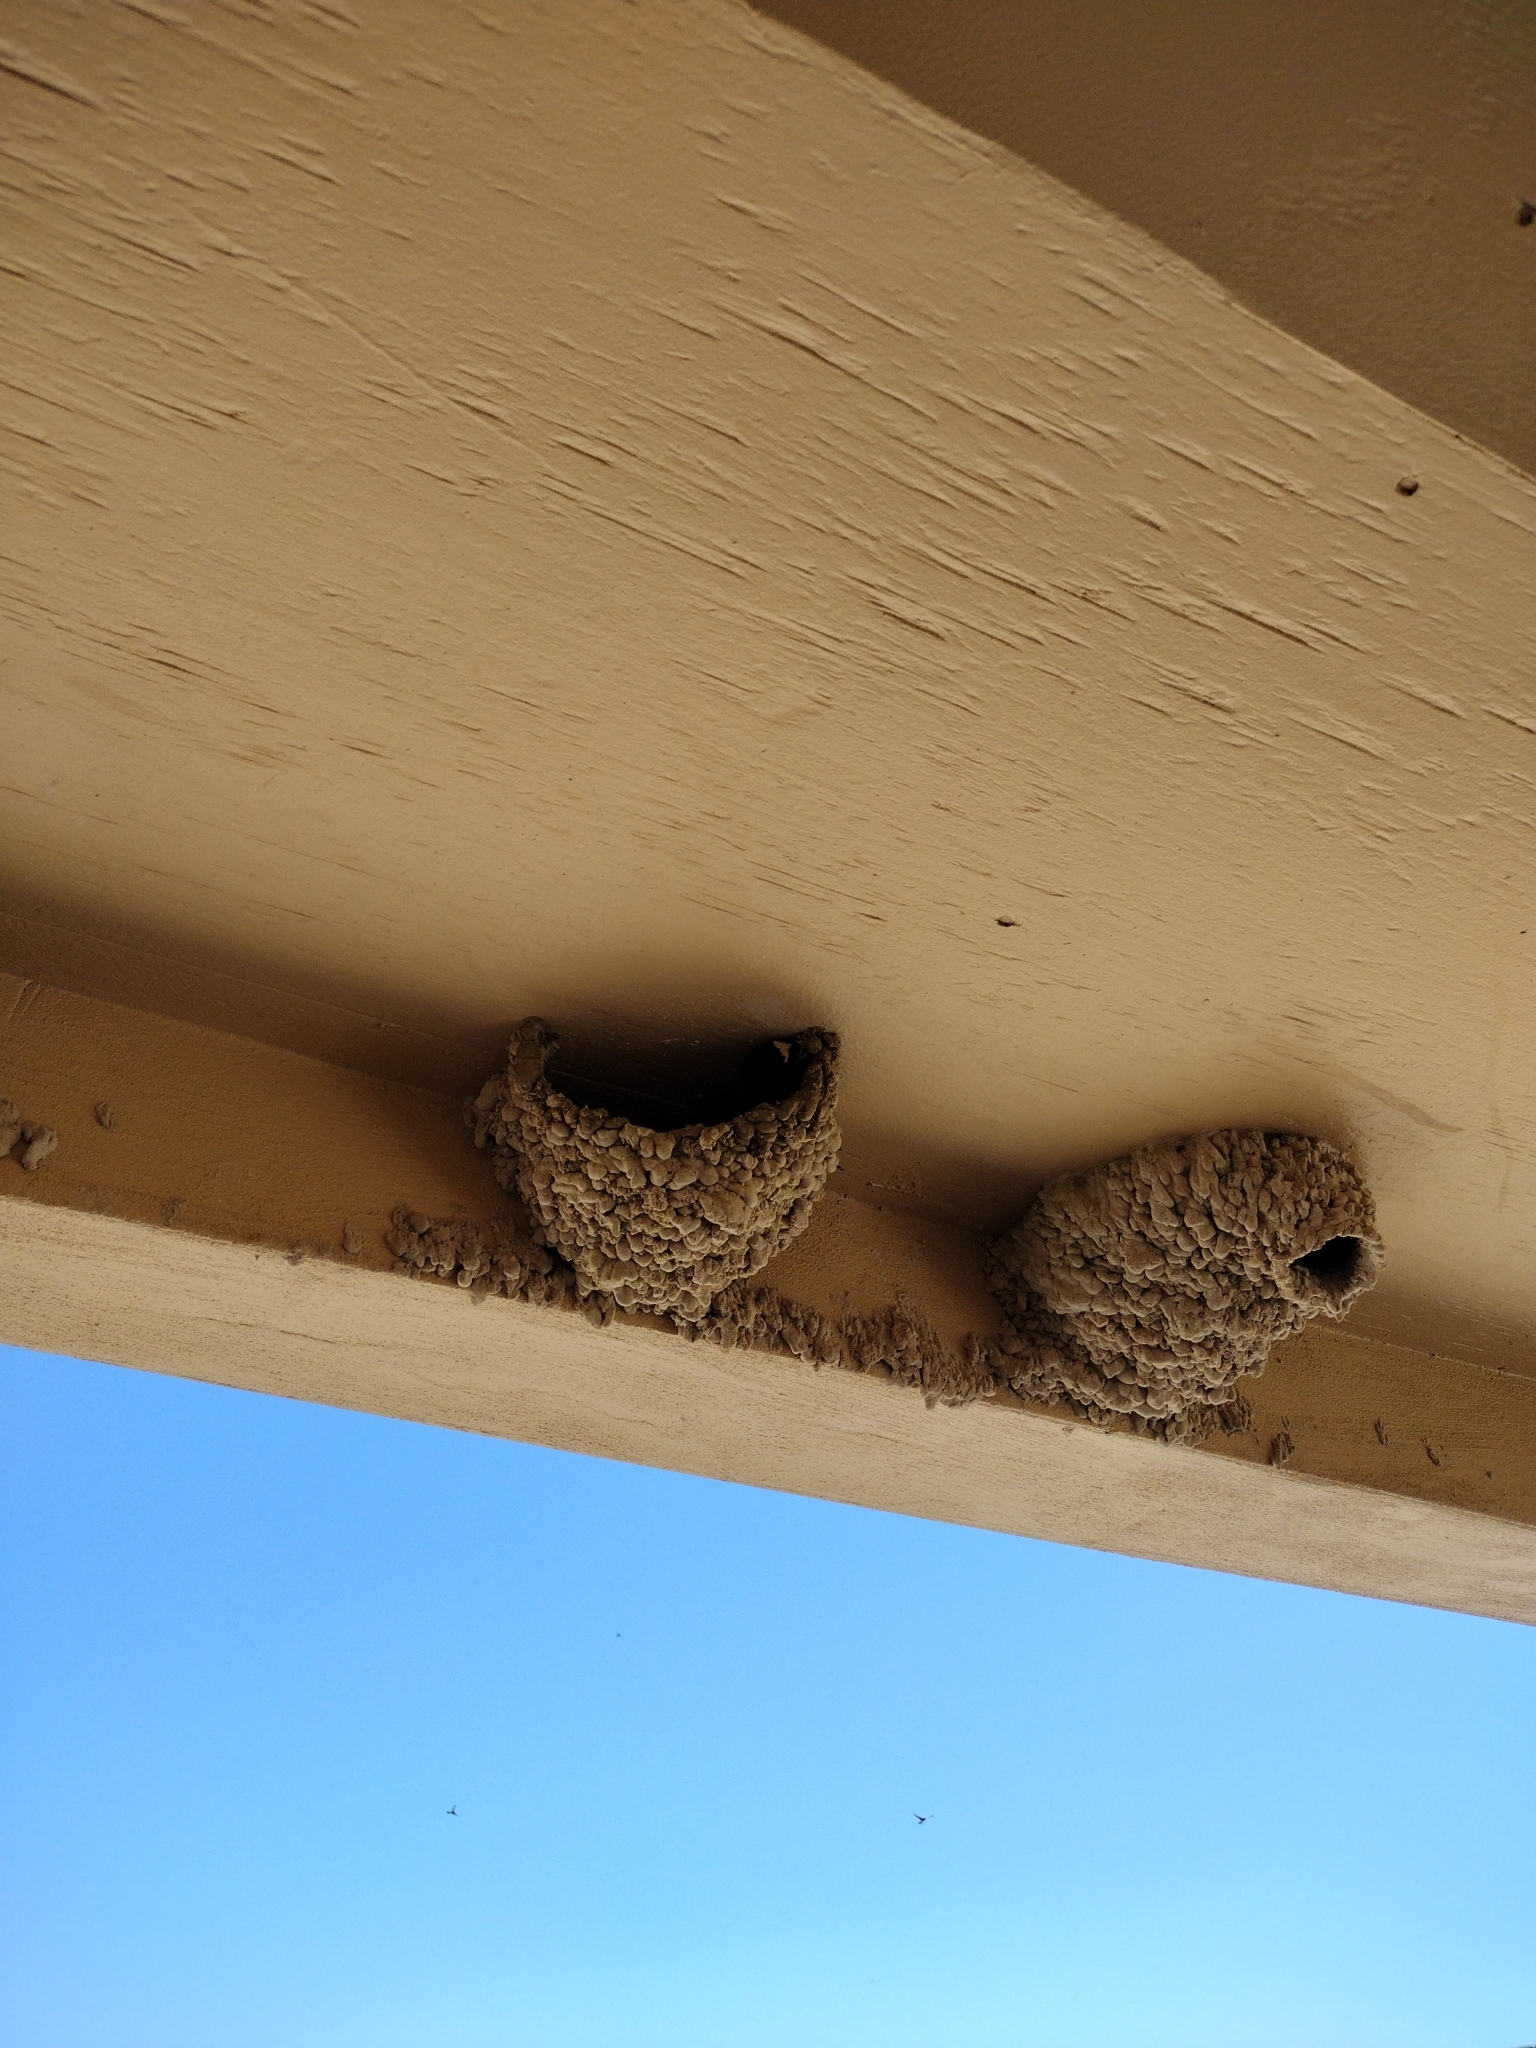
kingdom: Animalia
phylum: Chordata
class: Aves
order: Passeriformes
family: Hirundinidae
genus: Petrochelidon
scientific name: Petrochelidon pyrrhonota
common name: American cliff swallow
